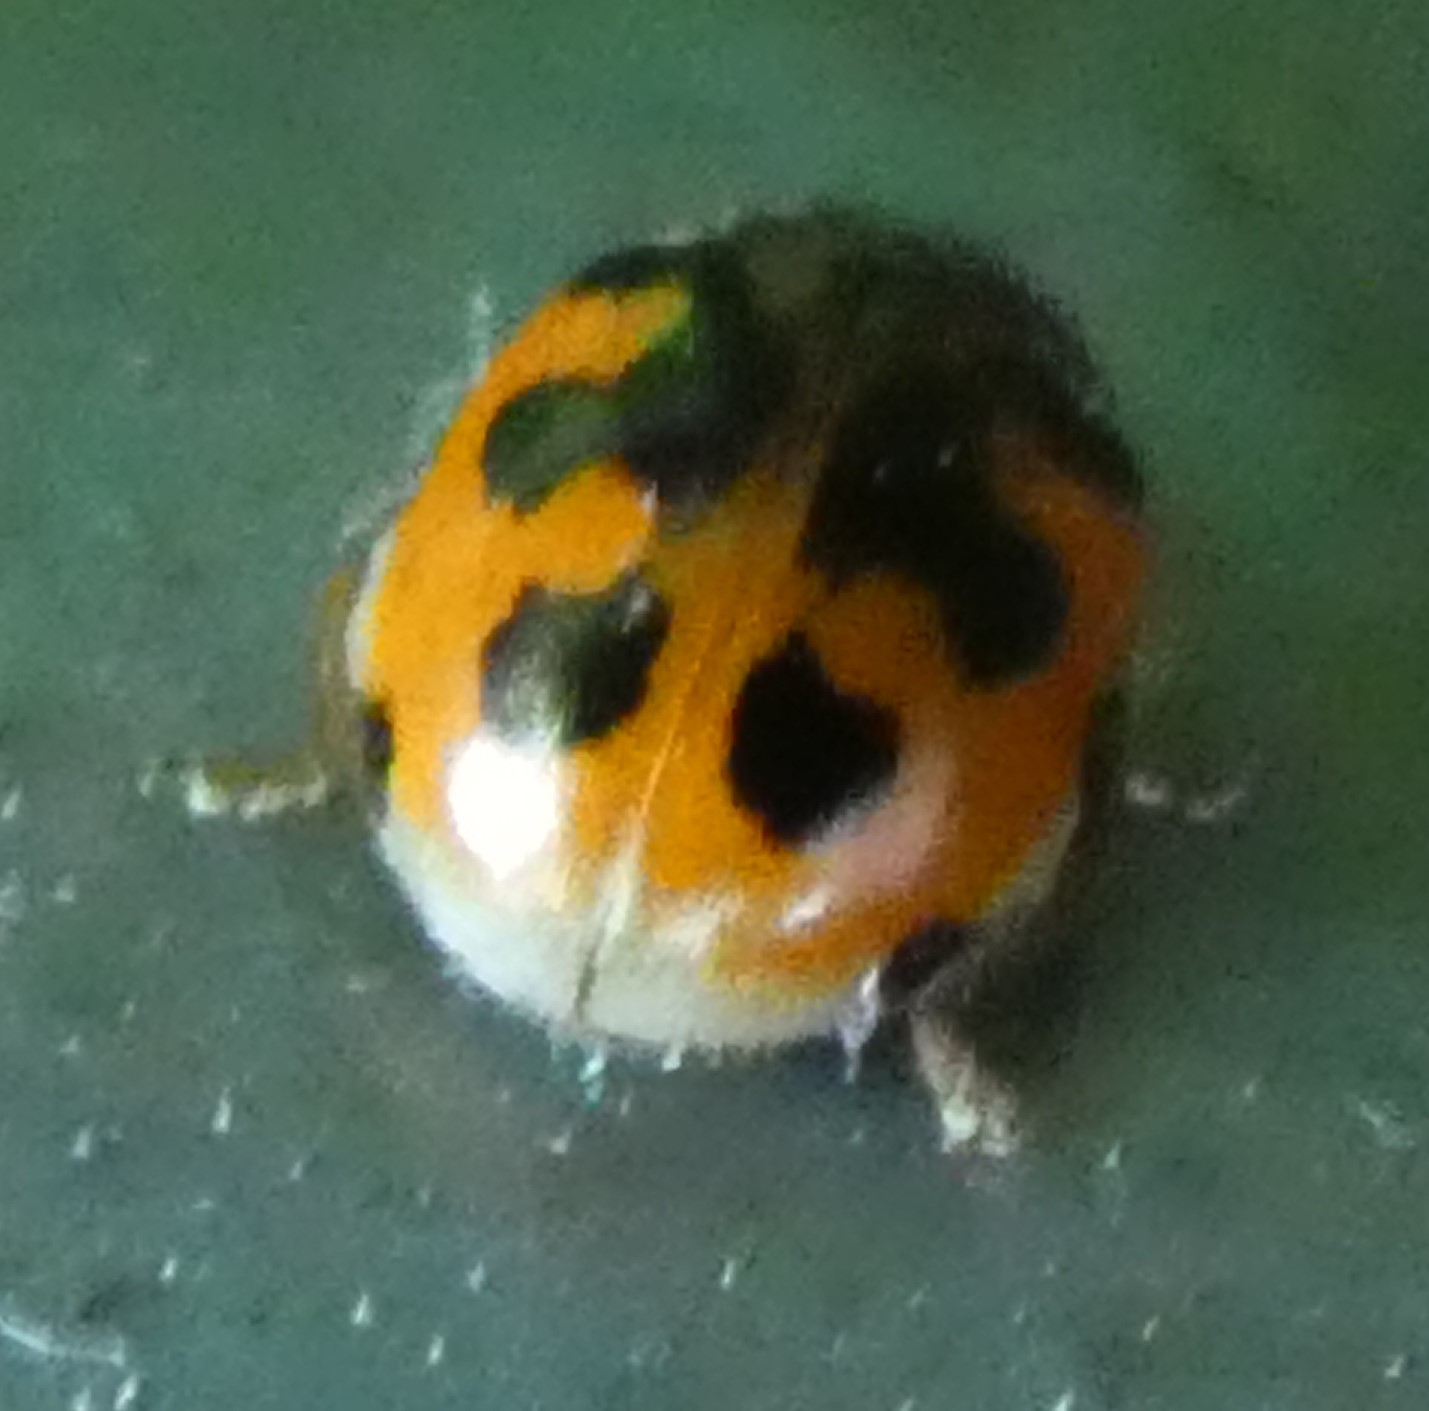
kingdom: Animalia
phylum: Arthropoda
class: Insecta
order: Coleoptera
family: Coccinellidae
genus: Adalia
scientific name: Adalia decempunctata
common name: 10-spot ladybird
